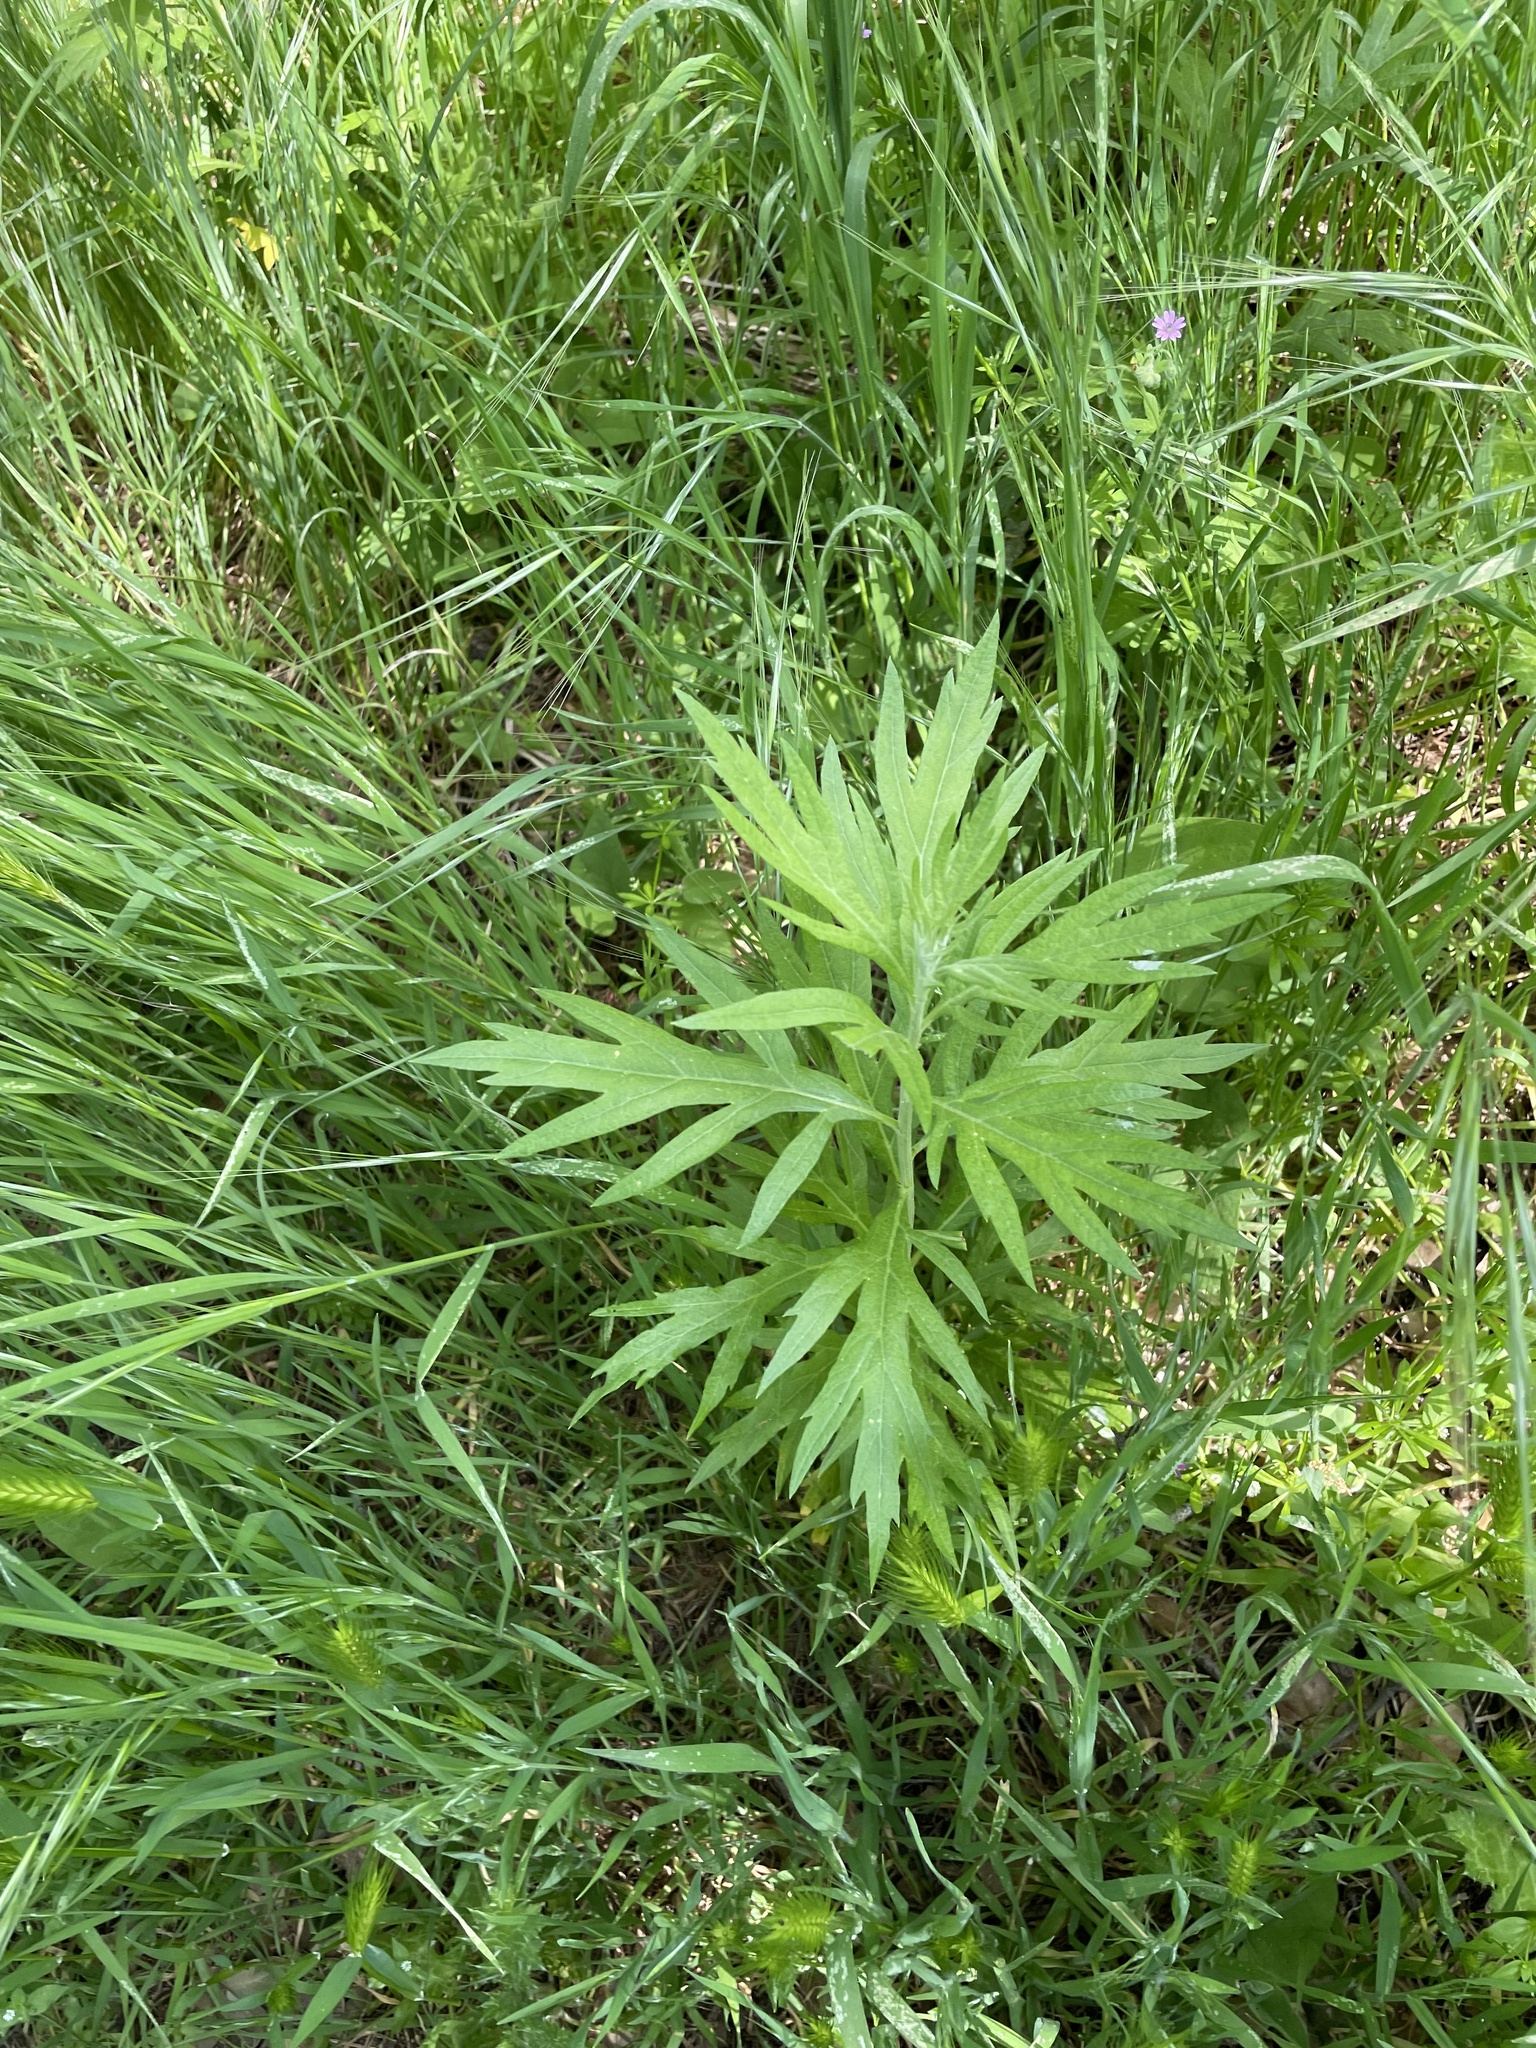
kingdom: Plantae
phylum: Tracheophyta
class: Magnoliopsida
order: Asterales
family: Asteraceae
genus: Artemisia
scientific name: Artemisia douglasiana
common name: Northwest mugwort
